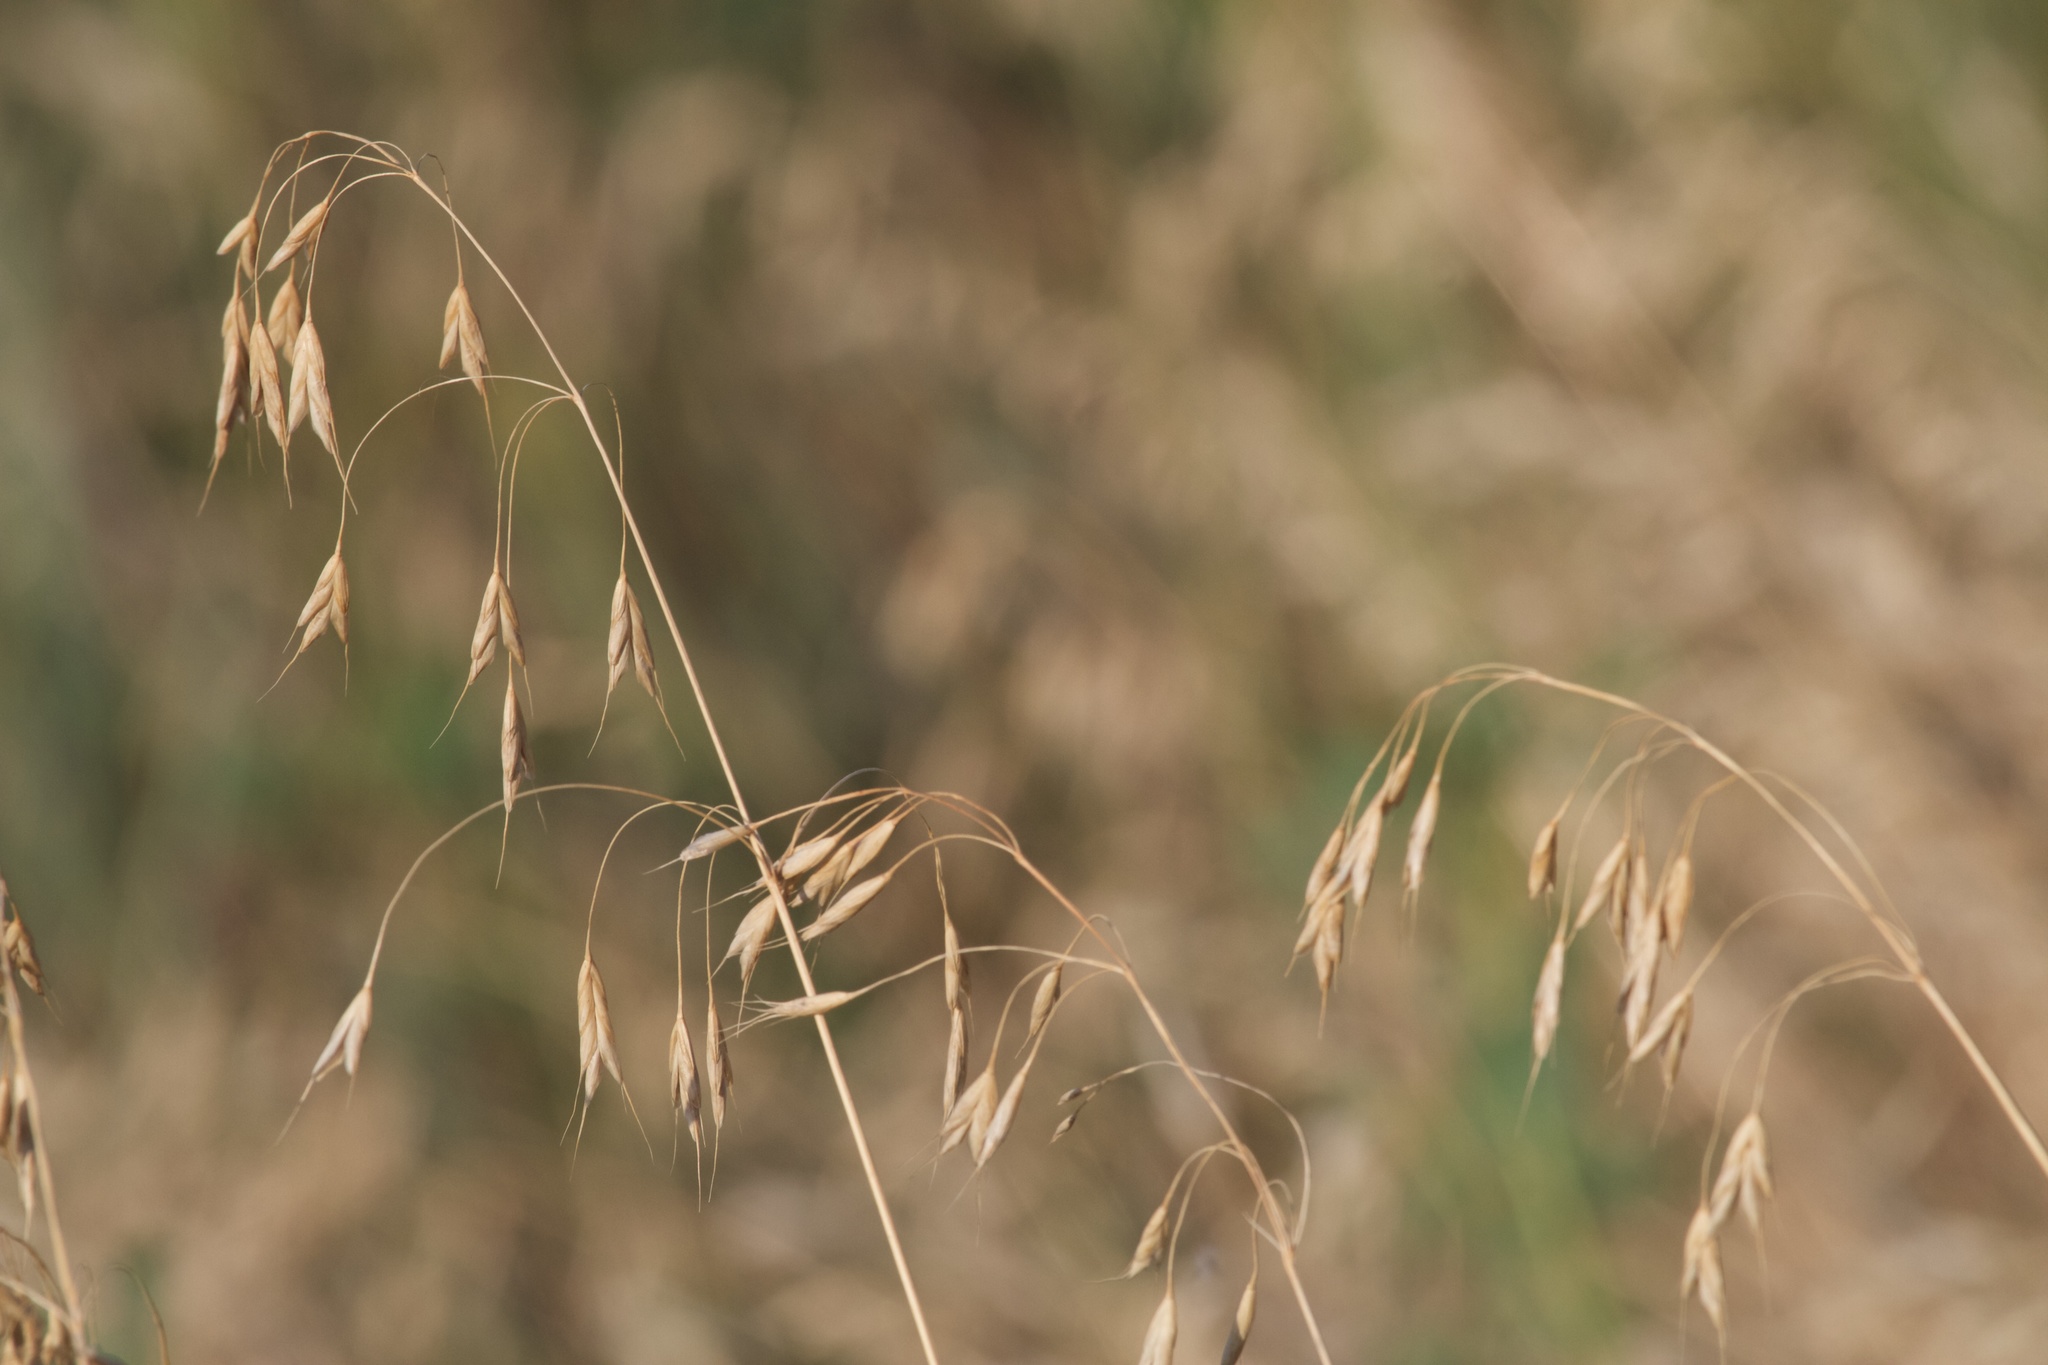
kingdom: Plantae
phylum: Tracheophyta
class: Liliopsida
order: Poales
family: Poaceae
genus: Bromus
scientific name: Bromus japonicus
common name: Japanese brome
